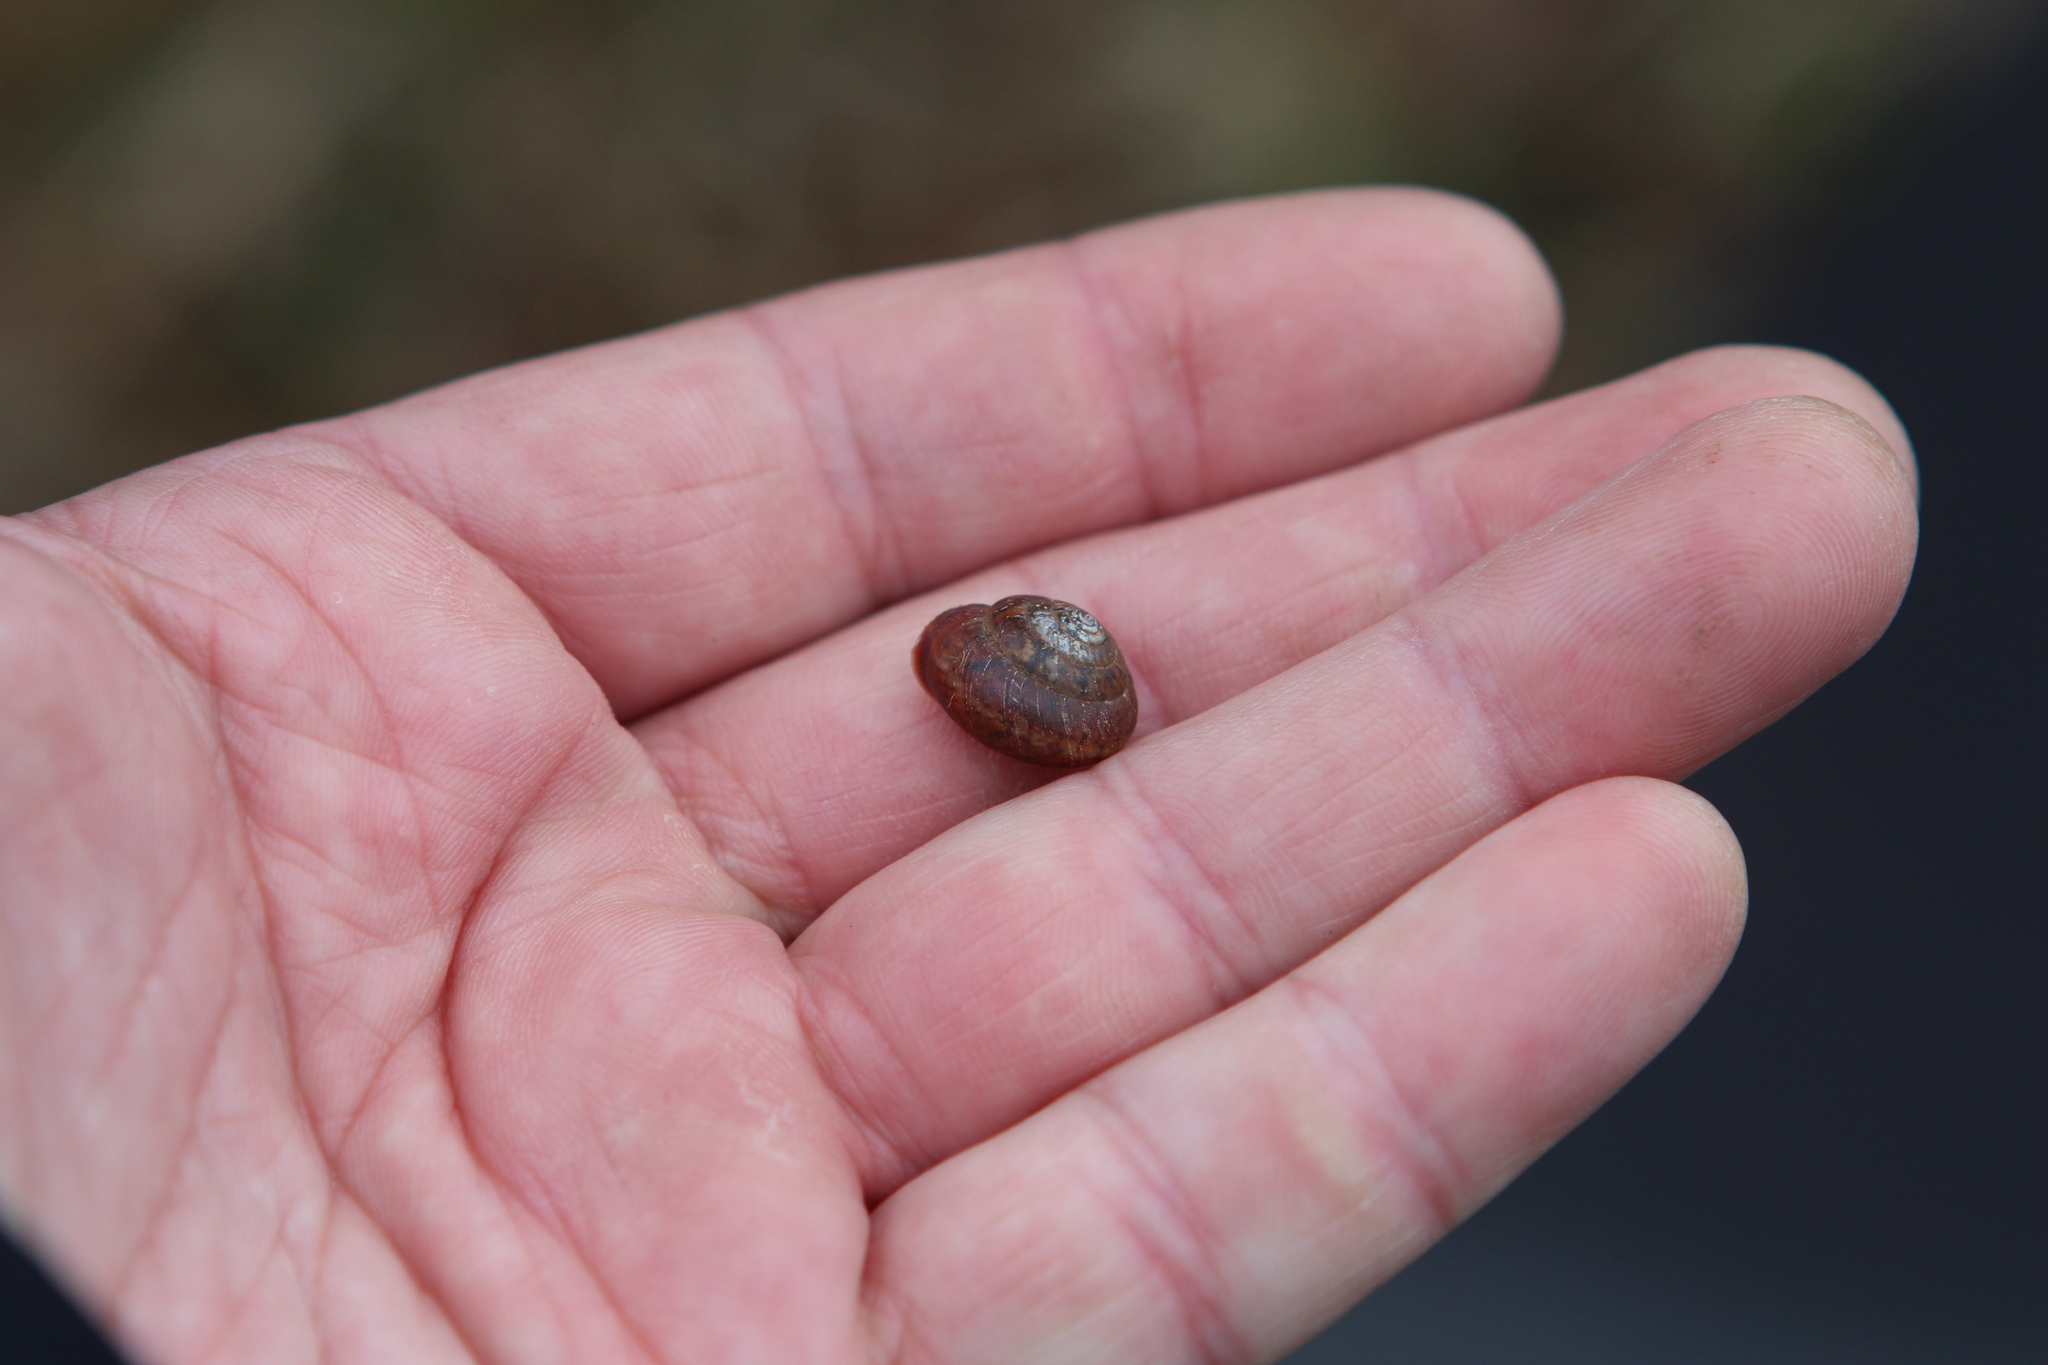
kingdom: Animalia
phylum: Mollusca
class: Gastropoda
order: Stylommatophora
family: Hygromiidae
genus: Monachoides
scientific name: Monachoides incarnatus
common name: Incarnate snail
